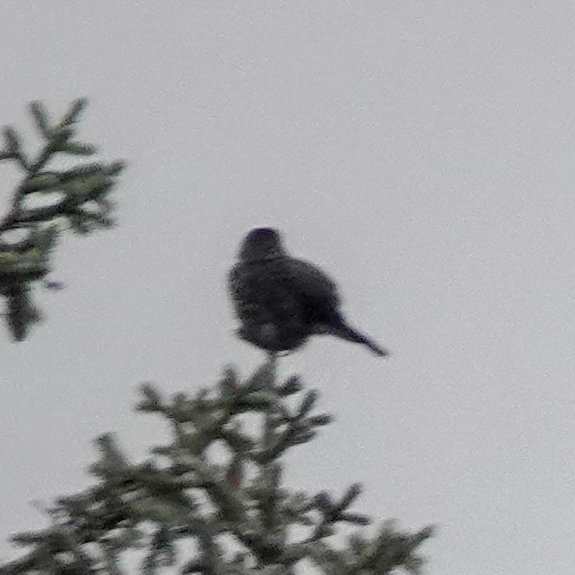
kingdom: Animalia
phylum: Chordata
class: Aves
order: Passeriformes
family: Corvidae
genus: Nucifraga
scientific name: Nucifraga caryocatactes
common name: Spotted nutcracker
